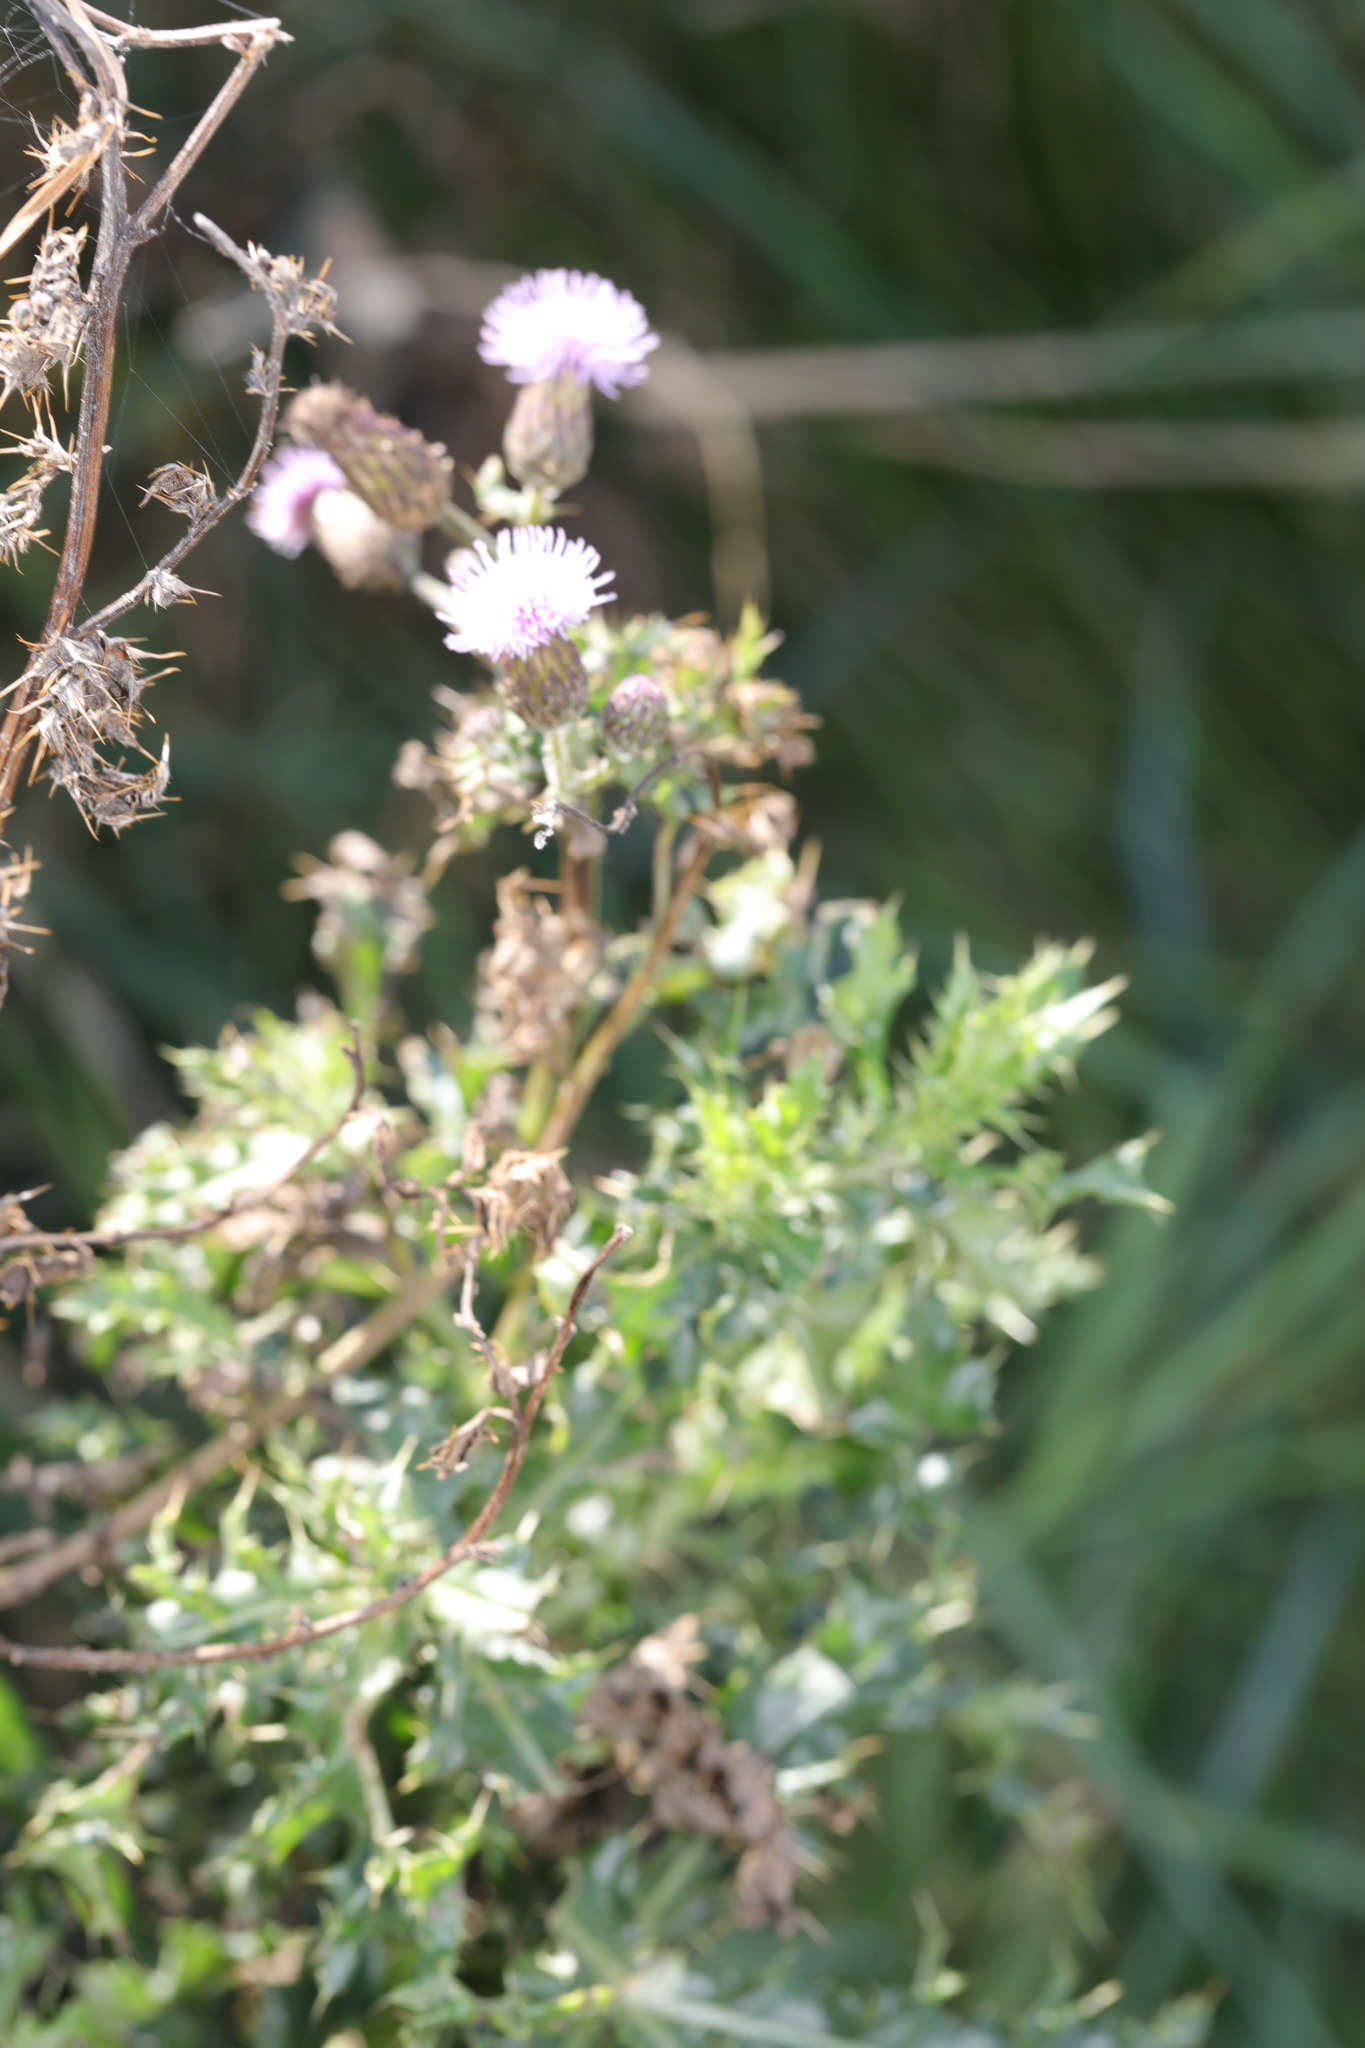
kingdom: Plantae
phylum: Tracheophyta
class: Magnoliopsida
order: Asterales
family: Asteraceae
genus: Cirsium
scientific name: Cirsium arvense
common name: Creeping thistle
